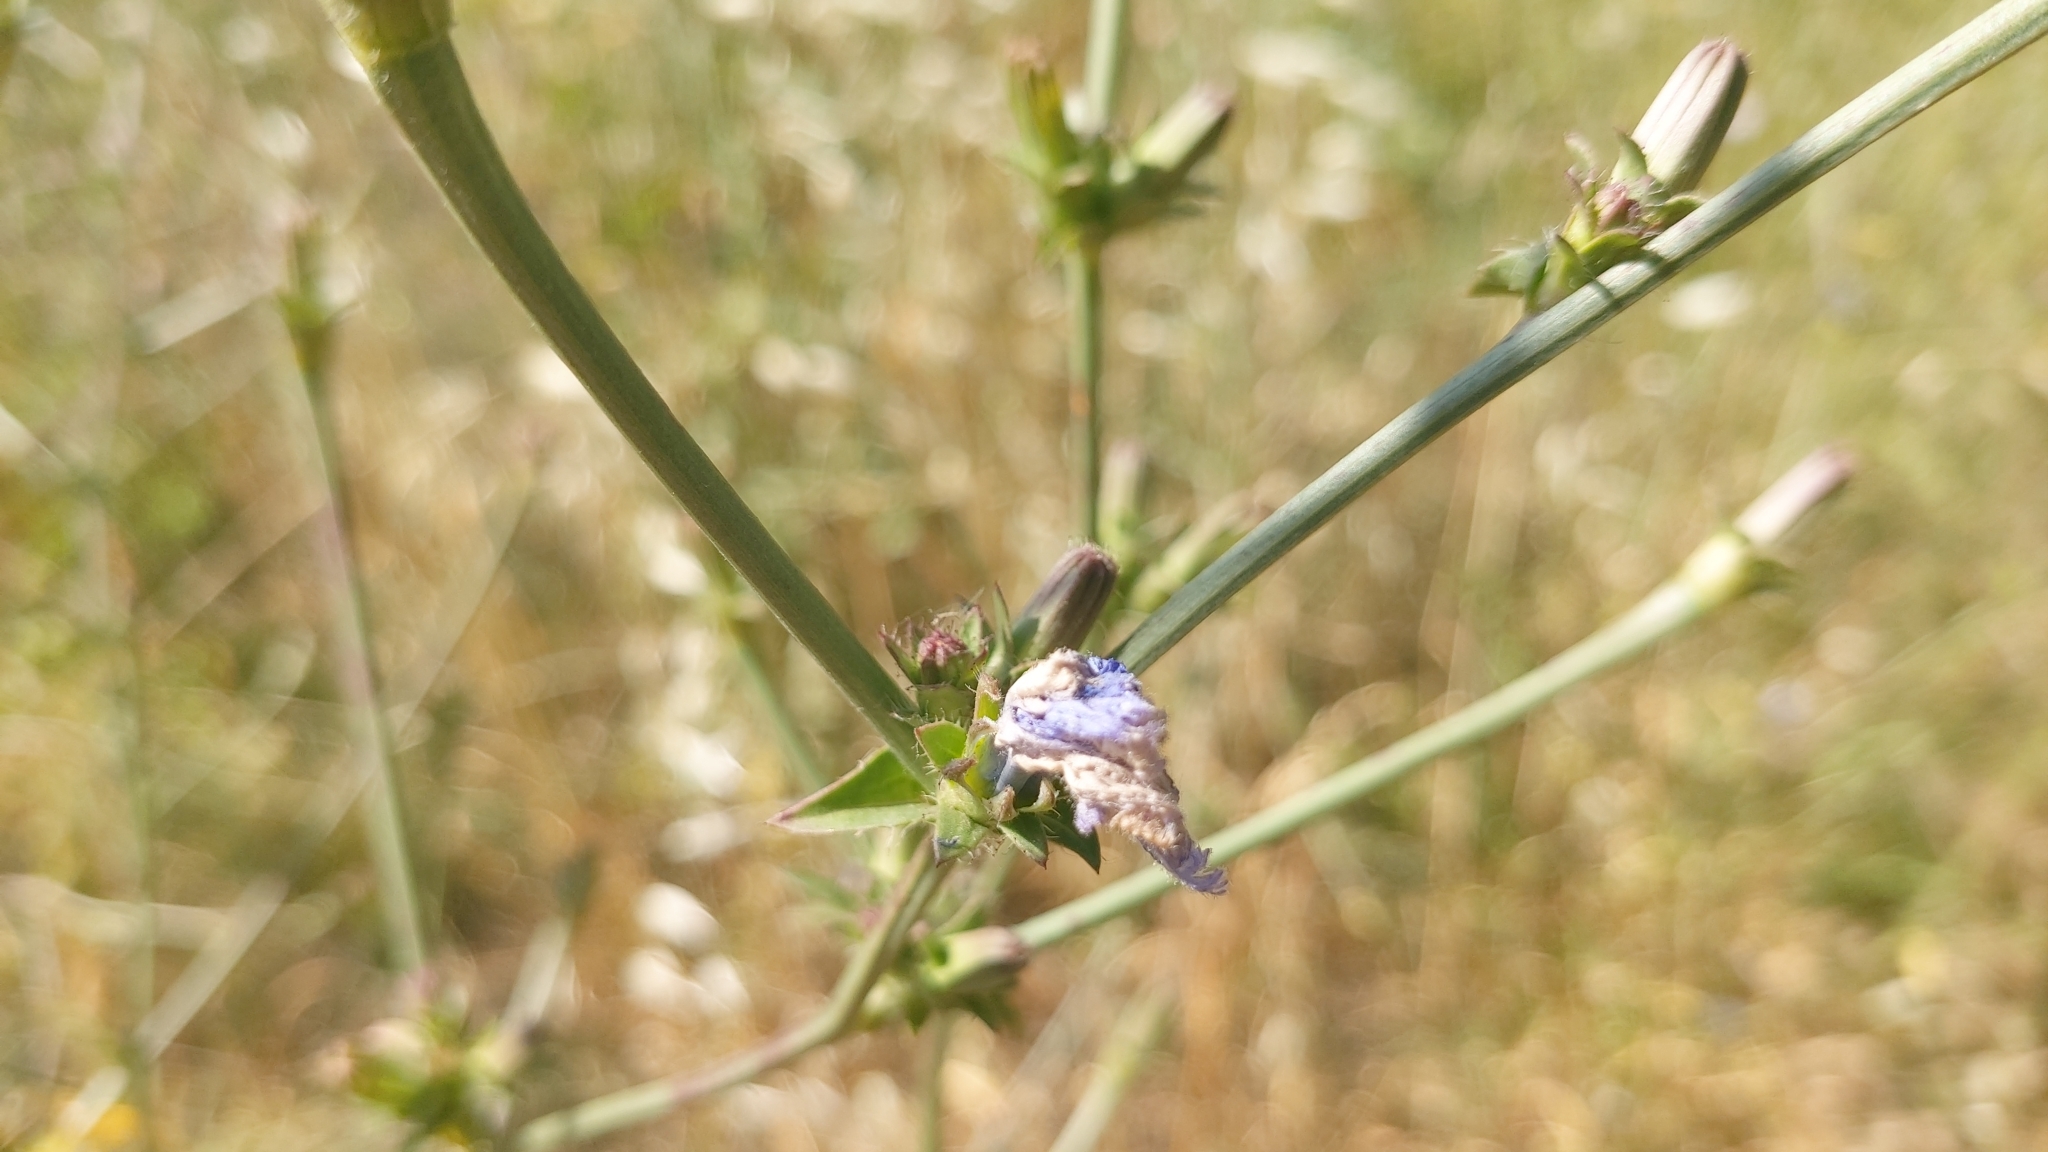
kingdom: Plantae
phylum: Tracheophyta
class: Magnoliopsida
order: Asterales
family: Asteraceae
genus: Cichorium
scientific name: Cichorium intybus
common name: Chicory
